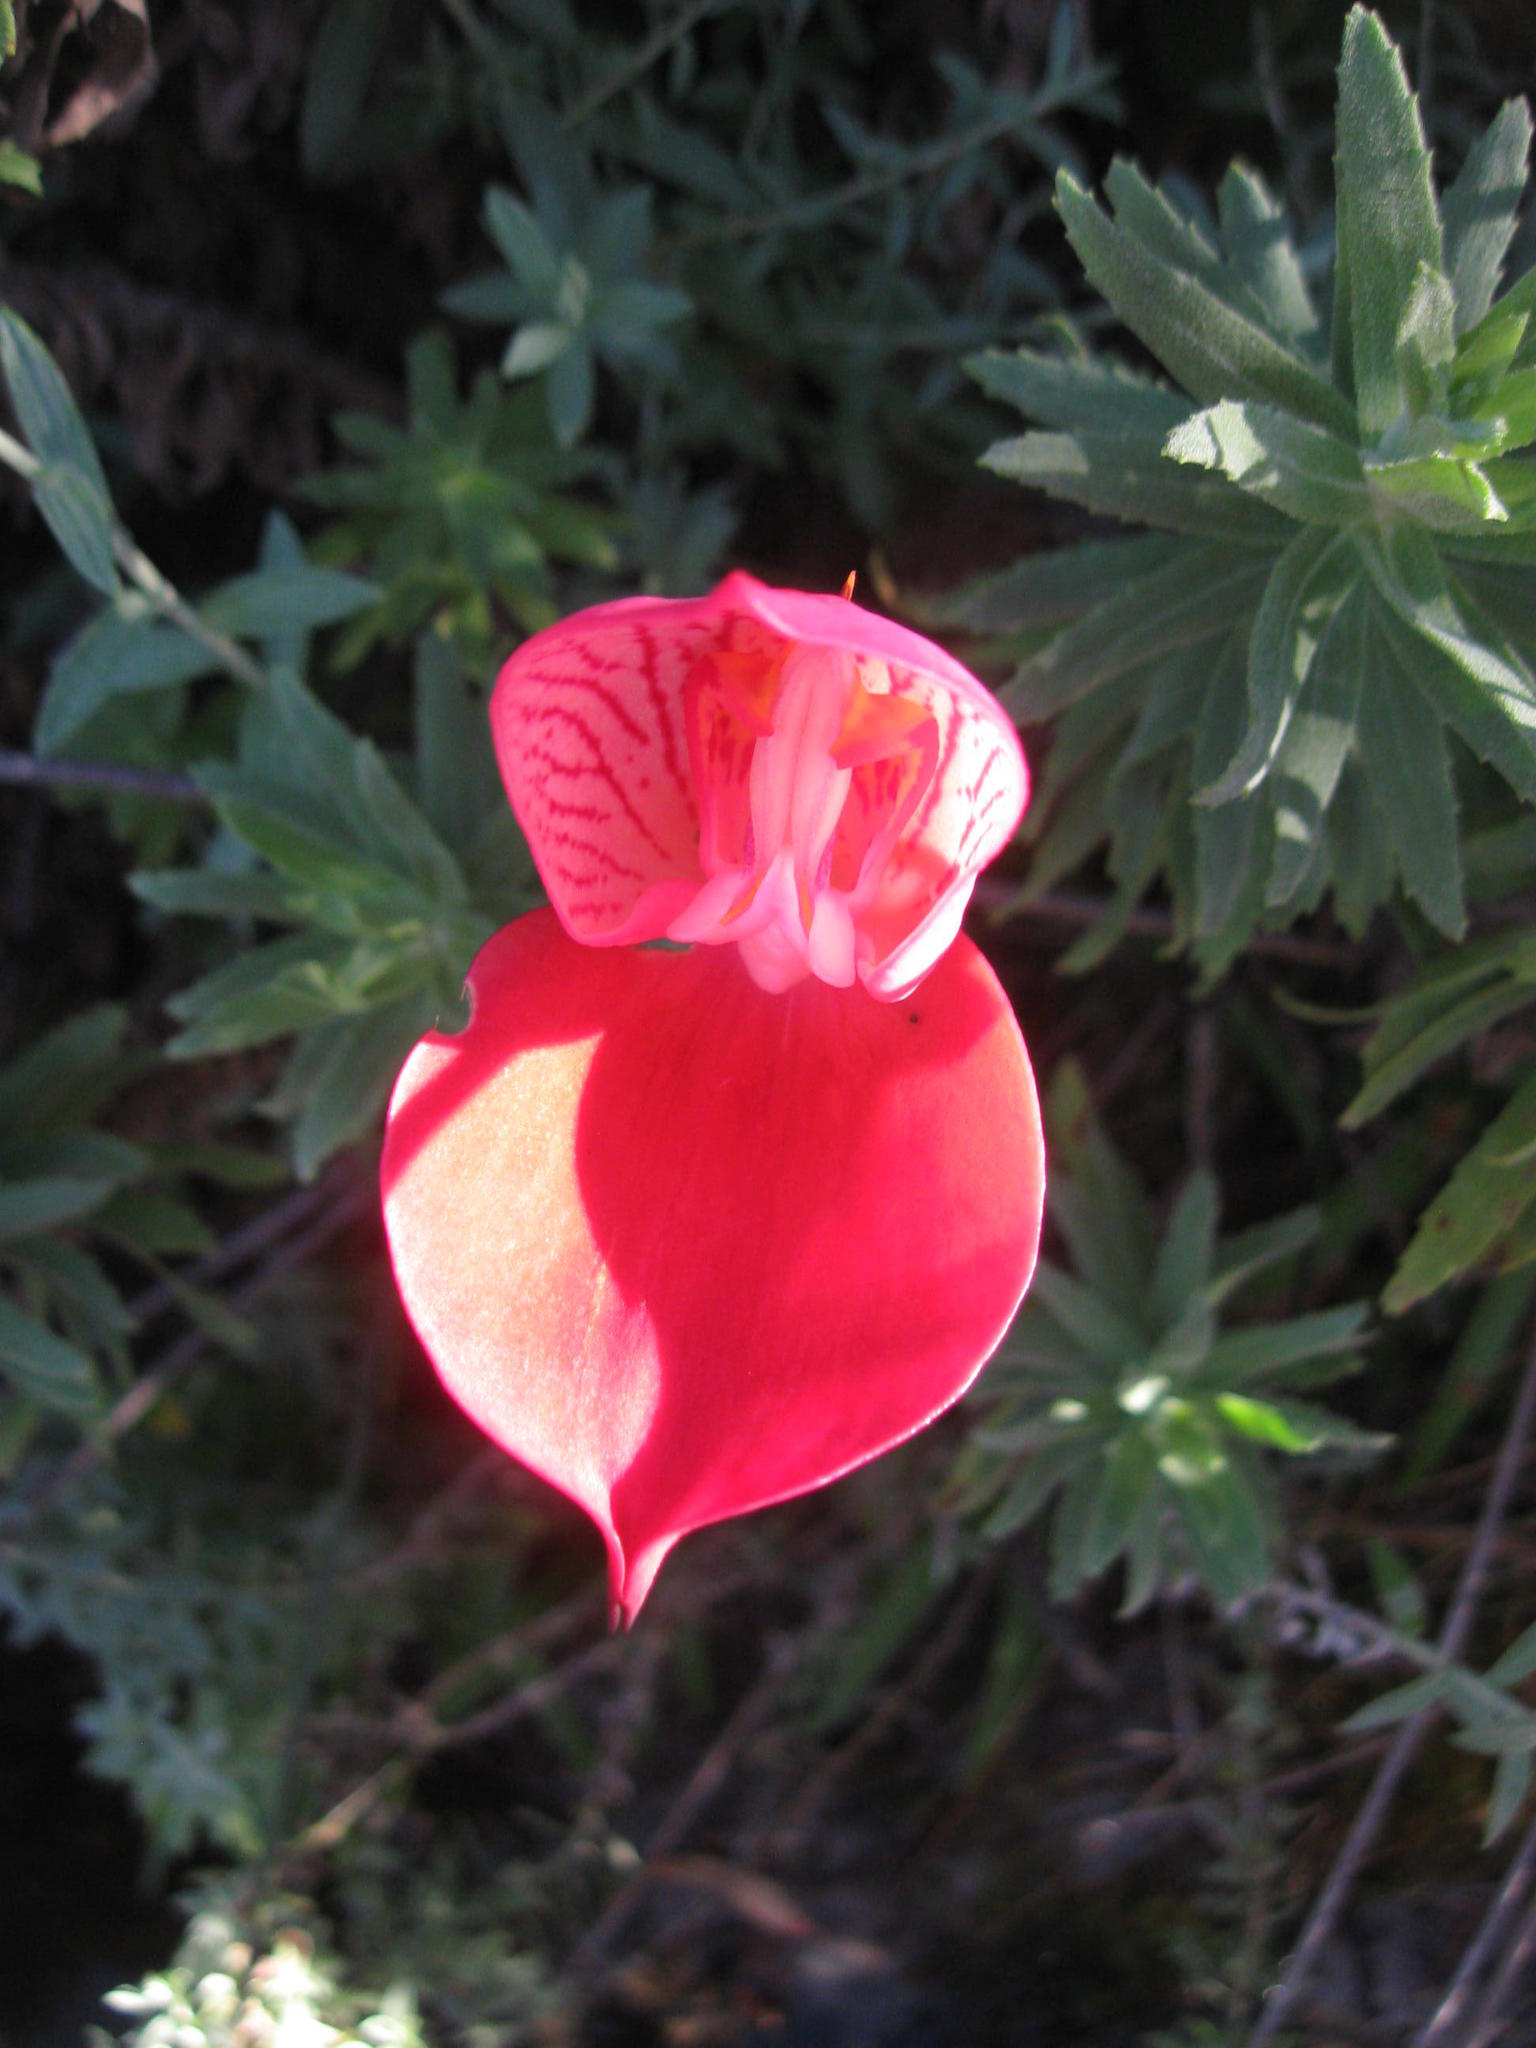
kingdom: Plantae
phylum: Tracheophyta
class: Liliopsida
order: Asparagales
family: Orchidaceae
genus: Disa
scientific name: Disa uniflora
